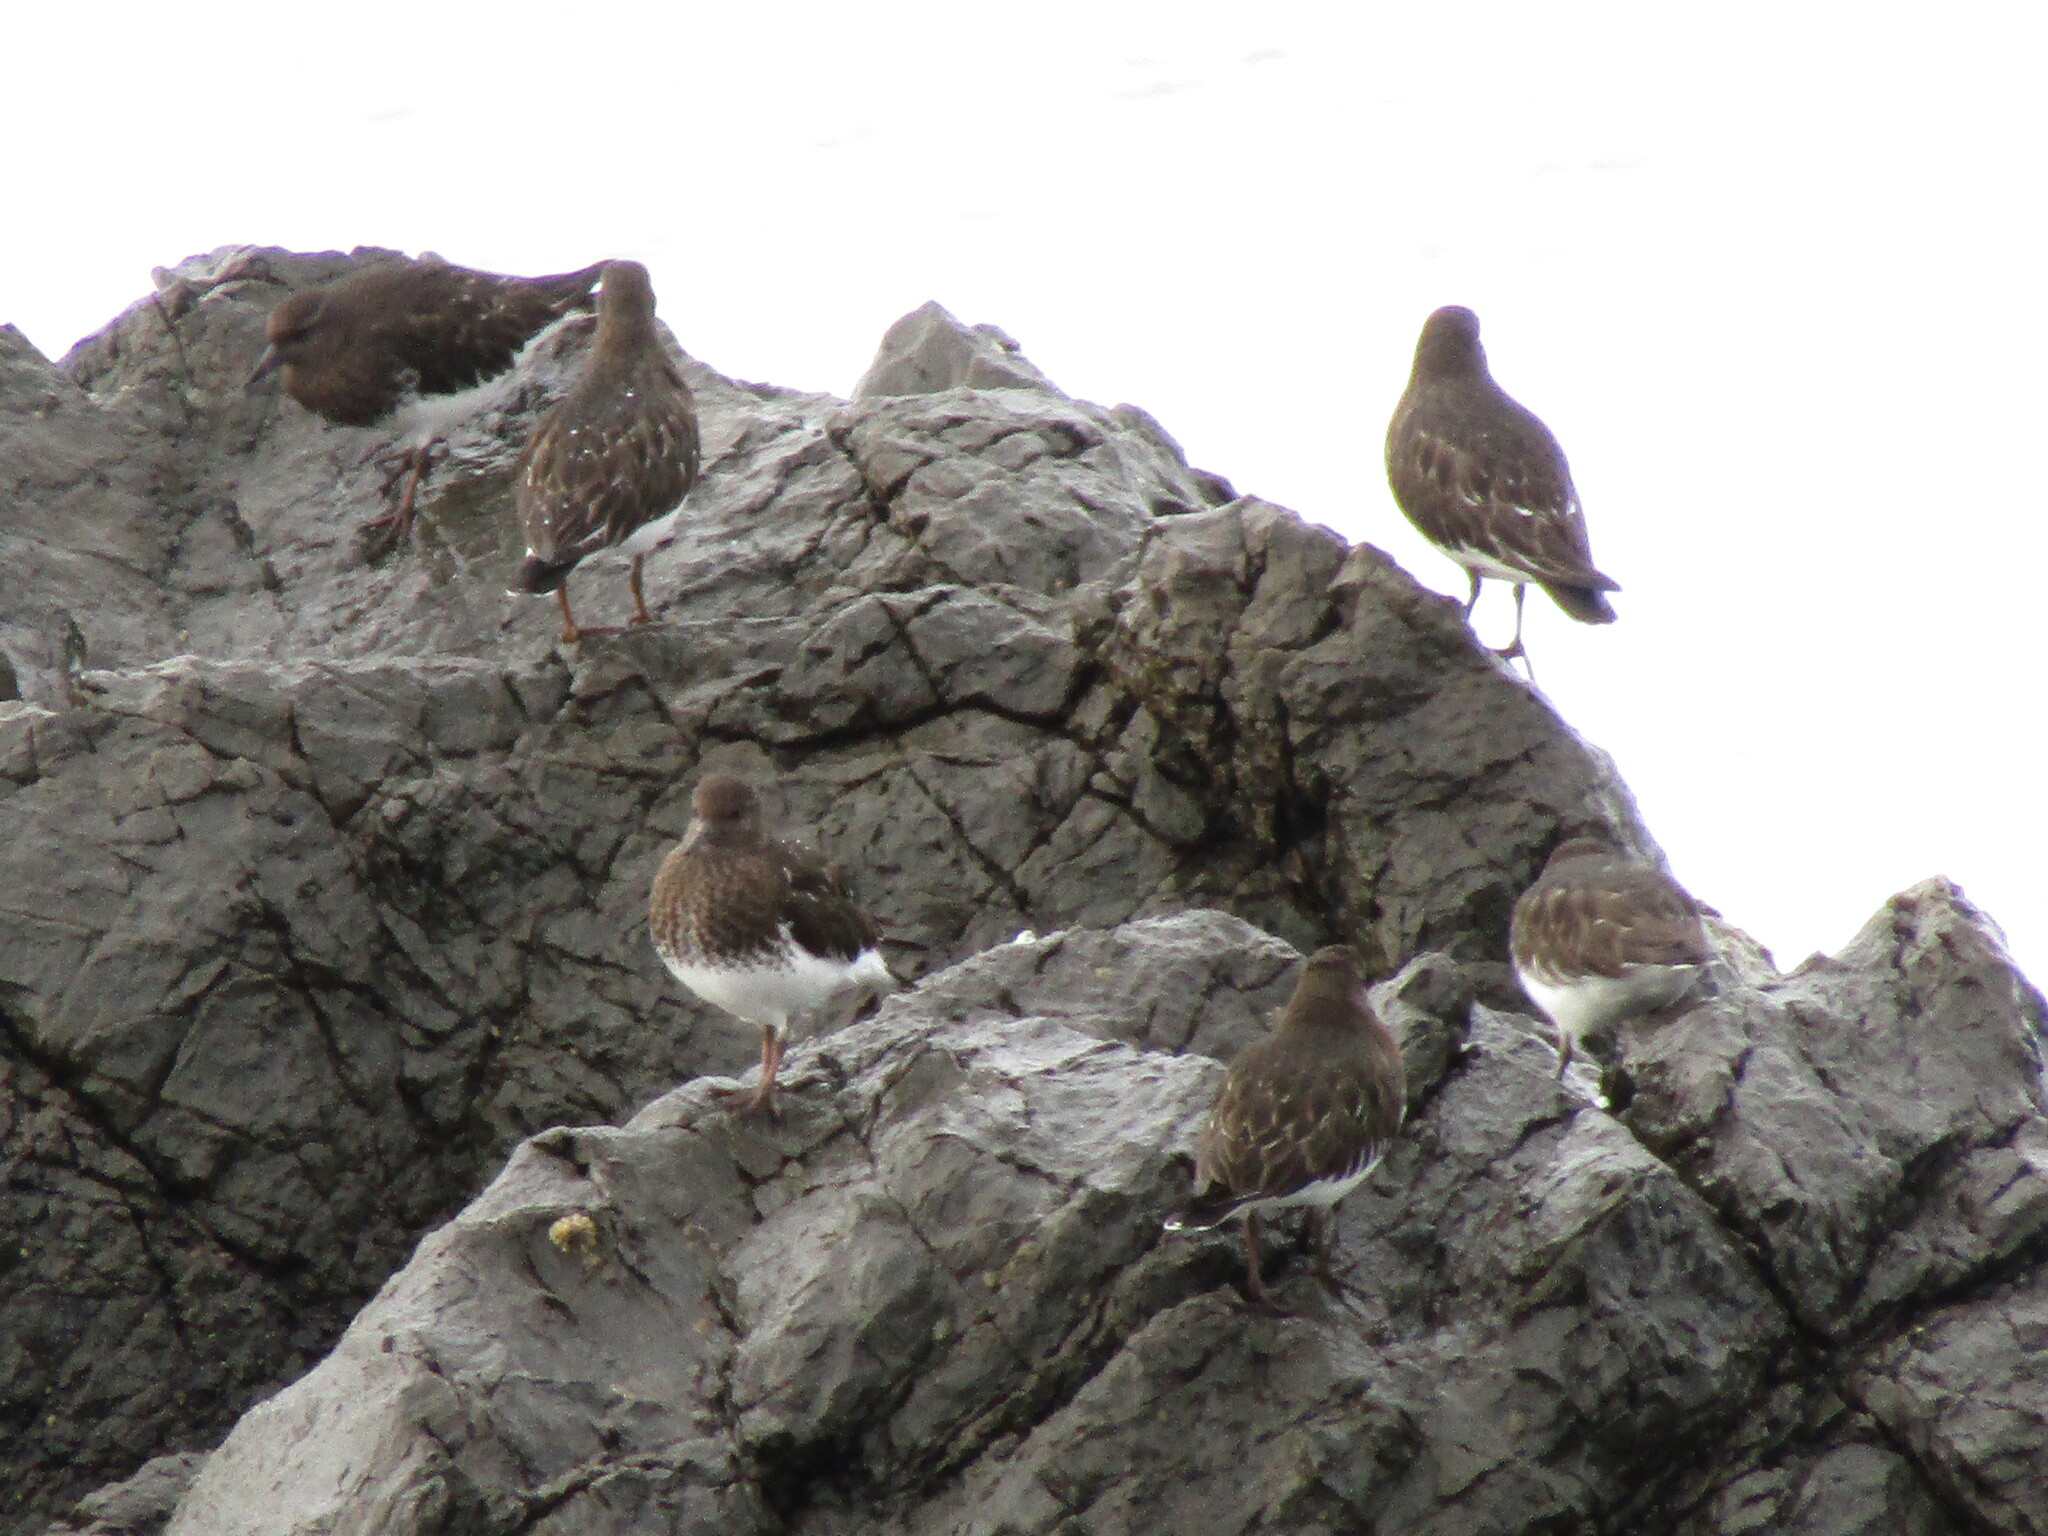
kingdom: Animalia
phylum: Chordata
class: Aves
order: Charadriiformes
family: Scolopacidae
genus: Arenaria
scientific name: Arenaria melanocephala
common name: Black turnstone
